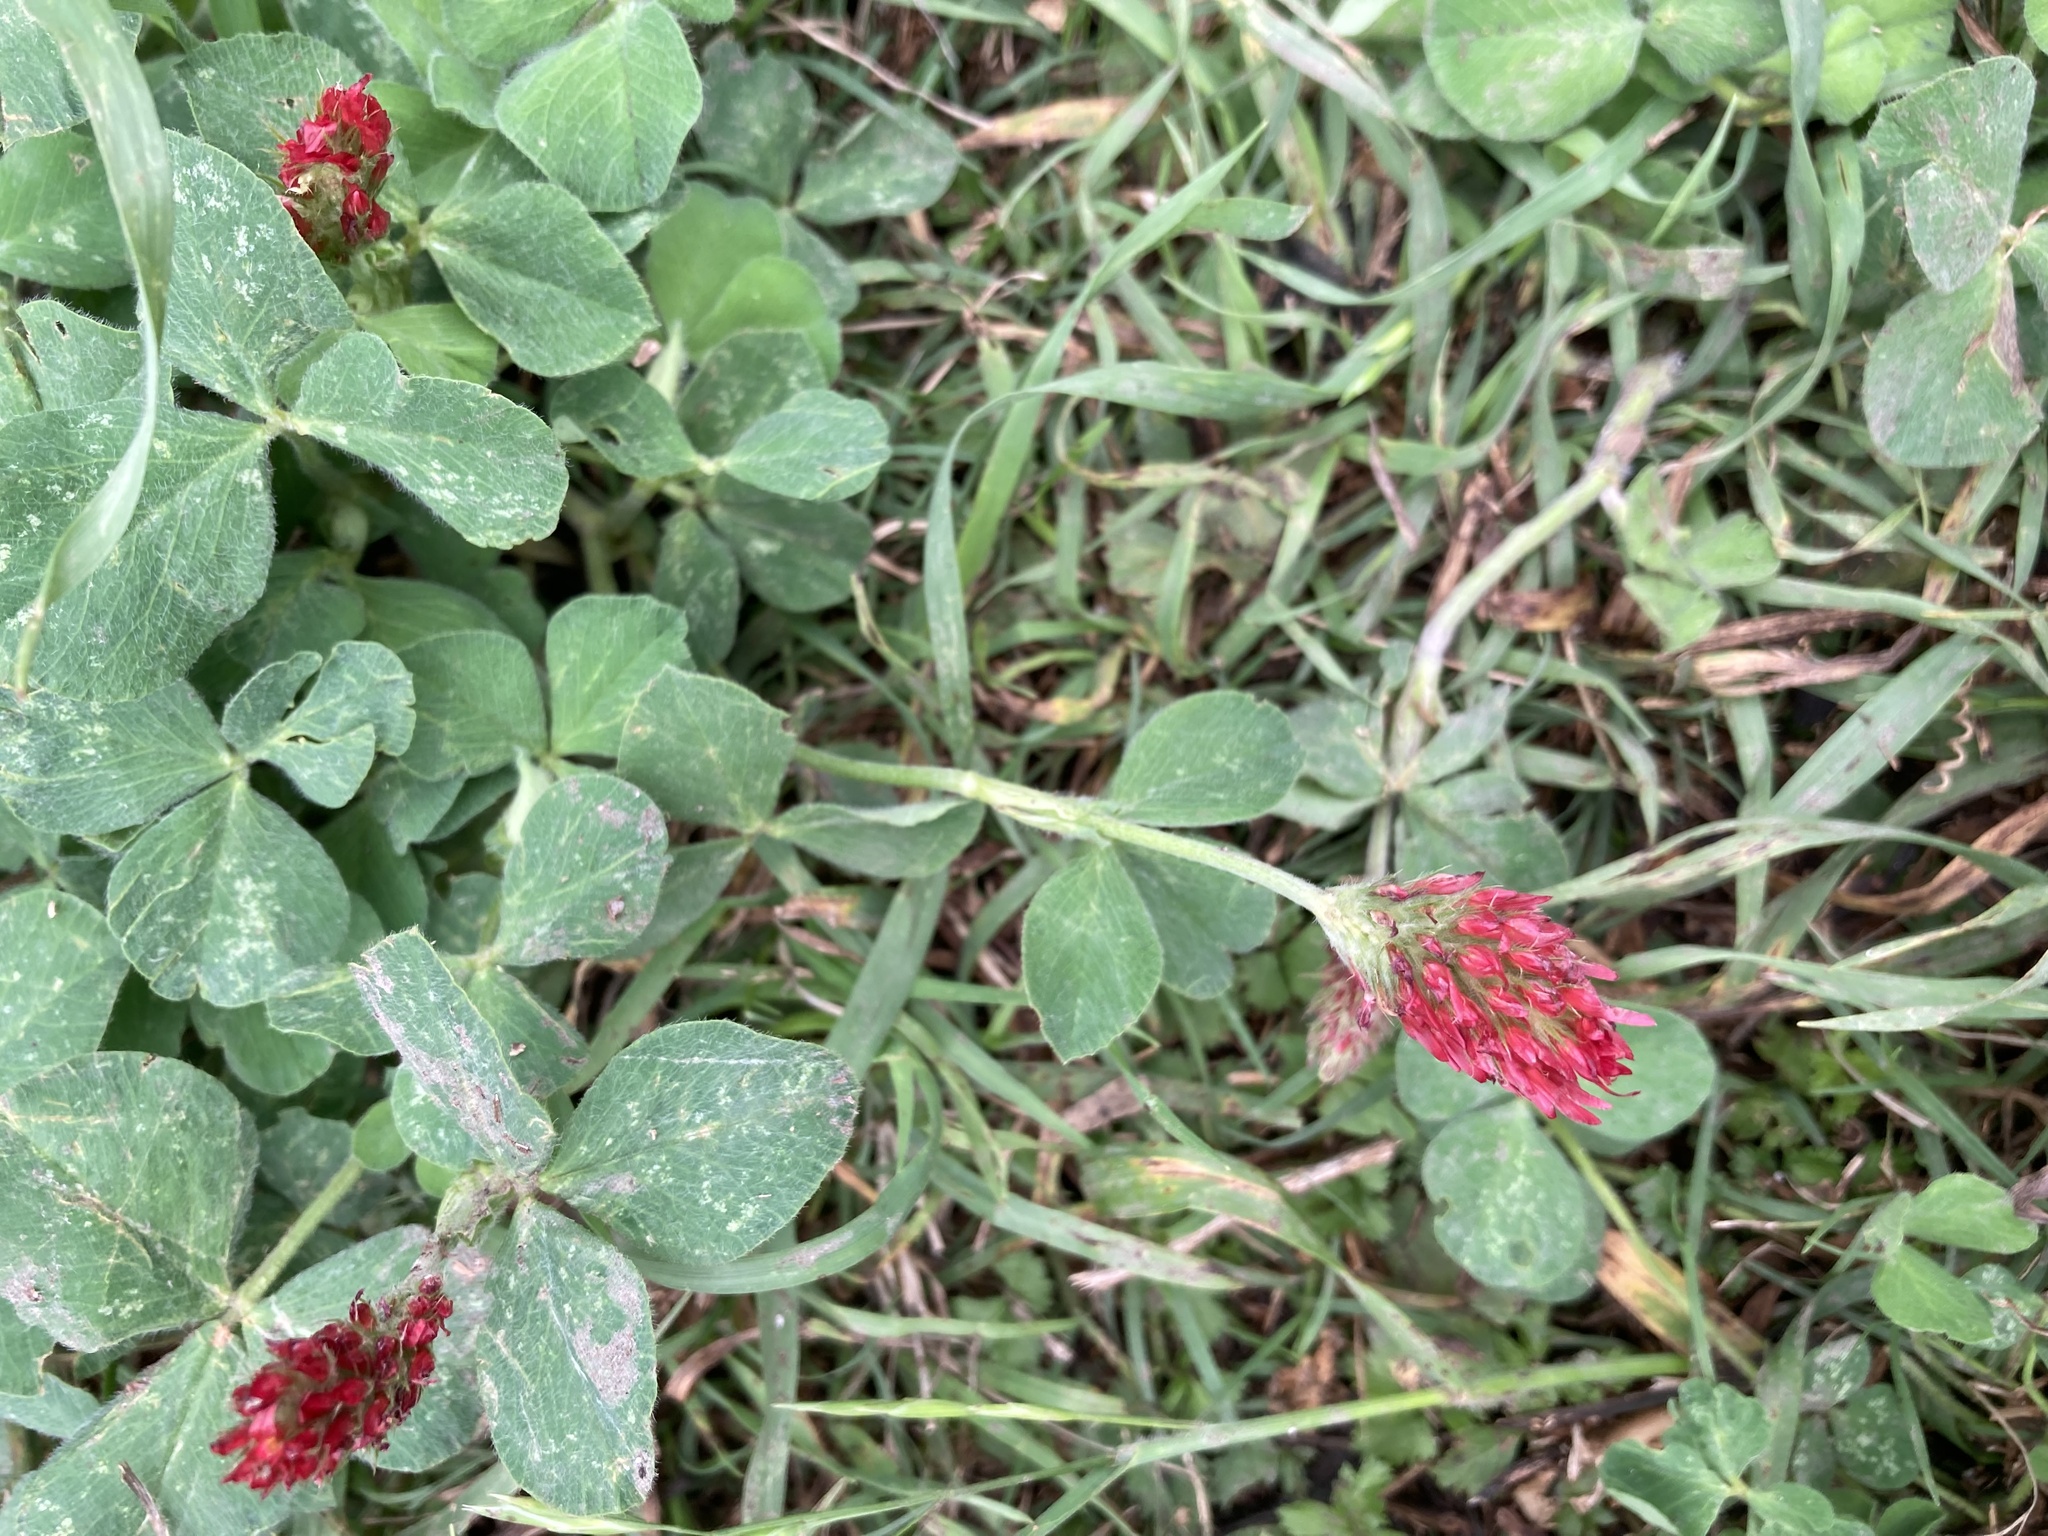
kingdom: Plantae
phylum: Tracheophyta
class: Magnoliopsida
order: Fabales
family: Fabaceae
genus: Trifolium
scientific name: Trifolium incarnatum
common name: Crimson clover
